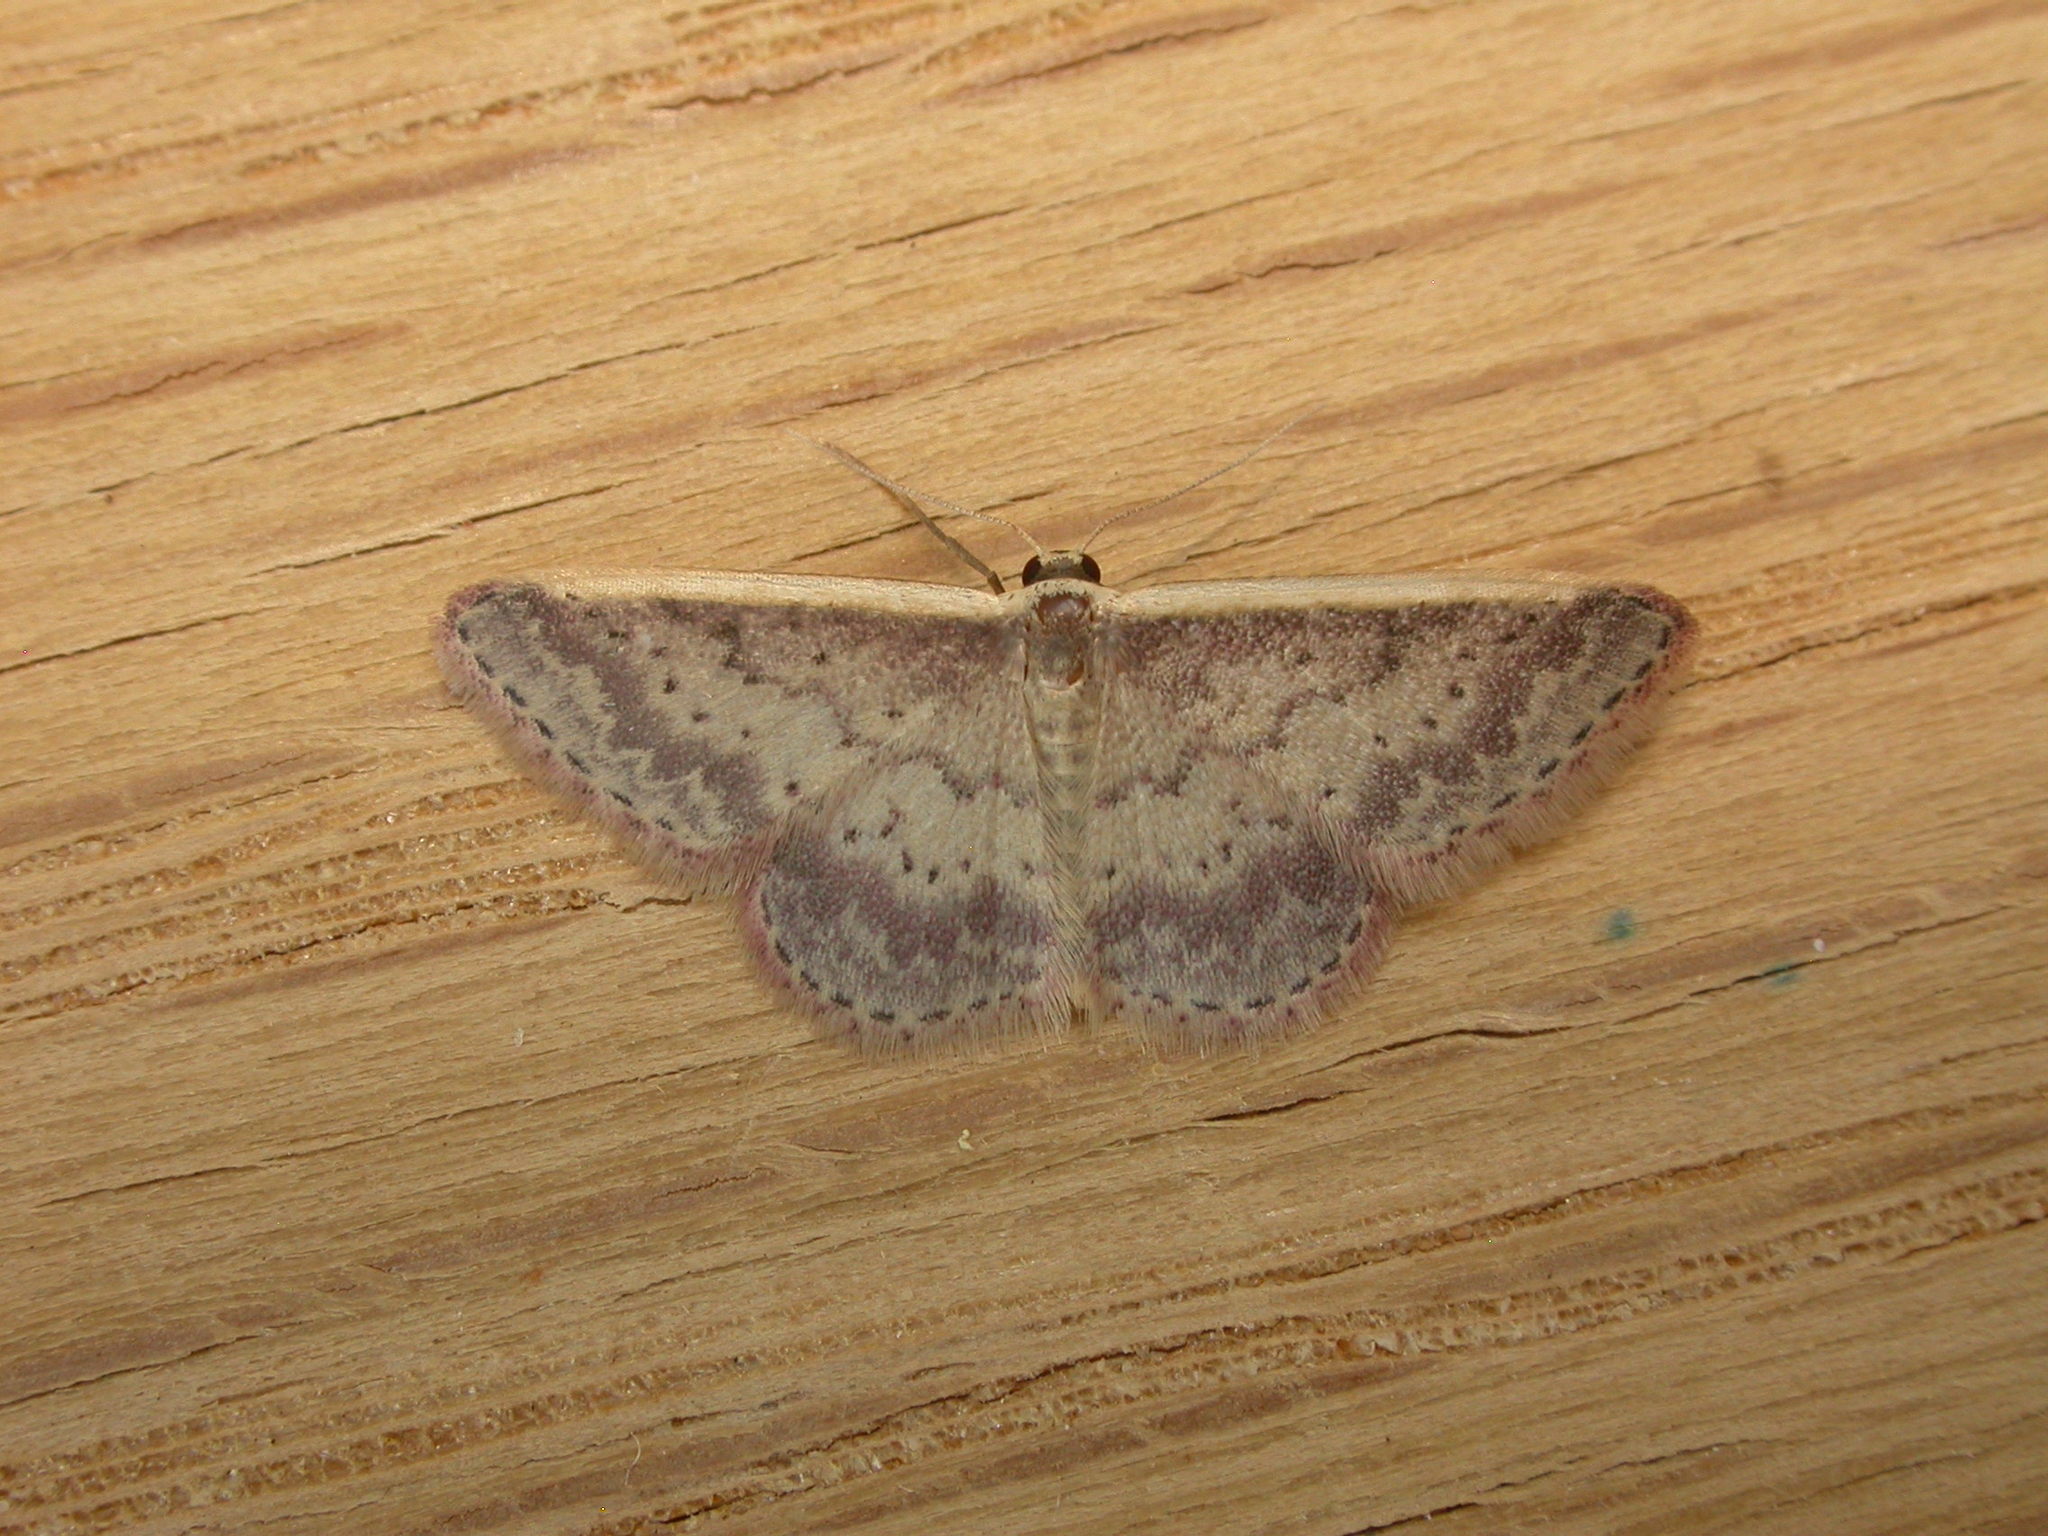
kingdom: Animalia
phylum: Arthropoda
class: Insecta
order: Lepidoptera
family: Geometridae
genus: Idaea
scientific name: Idaea nephelota
